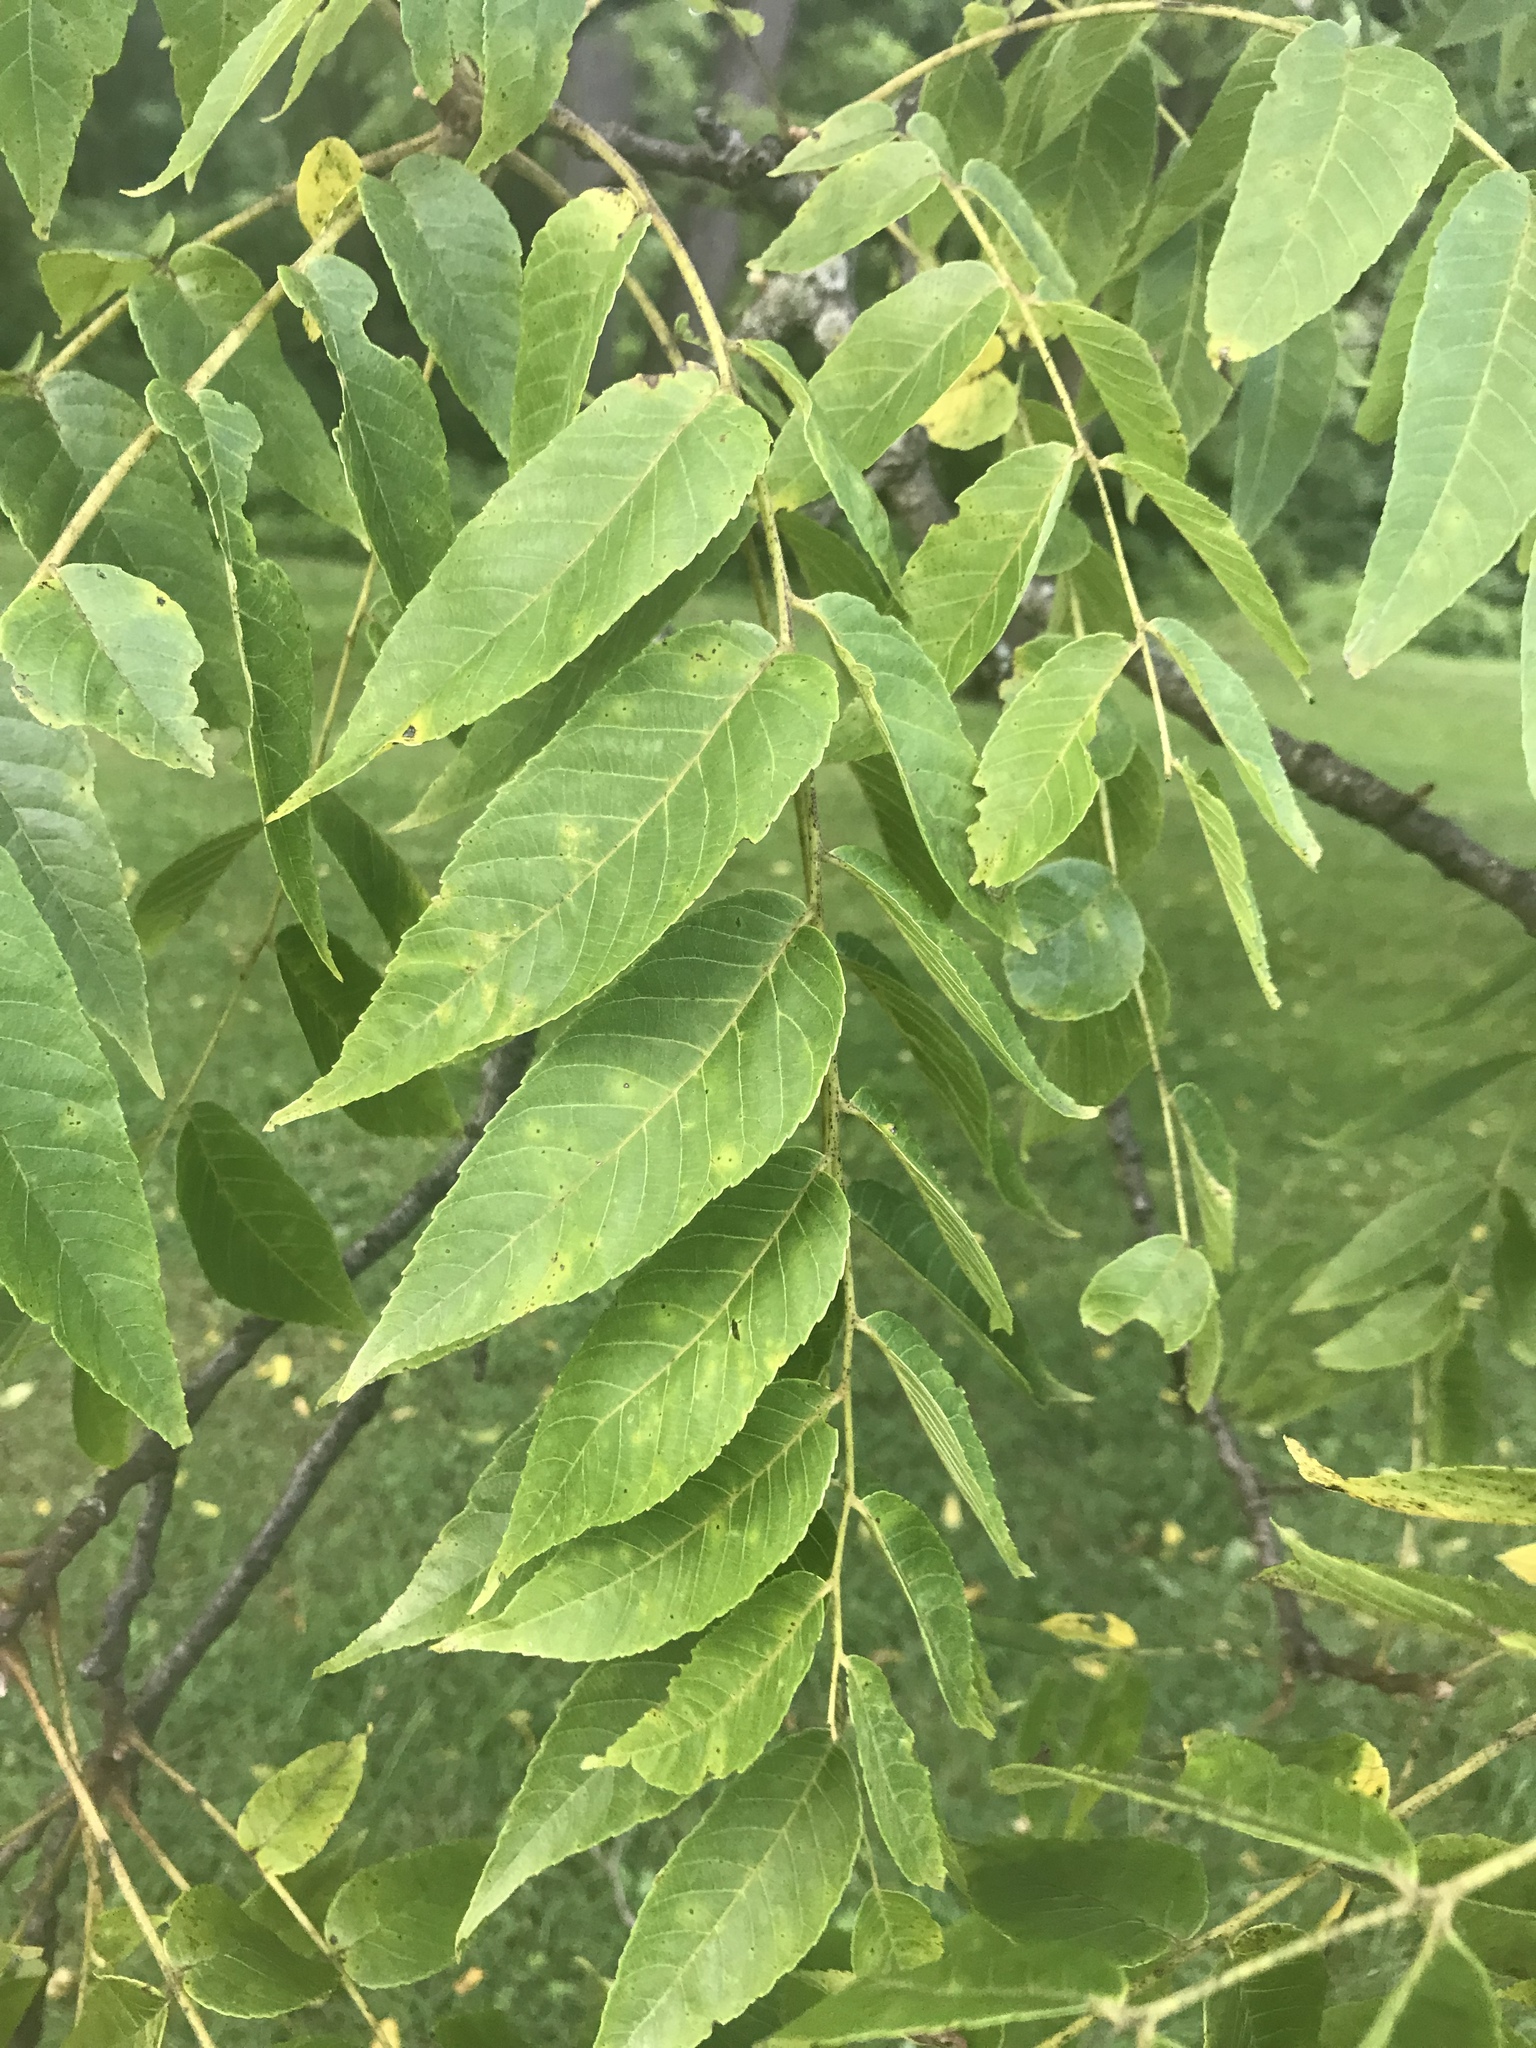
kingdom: Plantae
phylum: Tracheophyta
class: Magnoliopsida
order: Fagales
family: Juglandaceae
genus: Juglans
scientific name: Juglans nigra
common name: Black walnut
